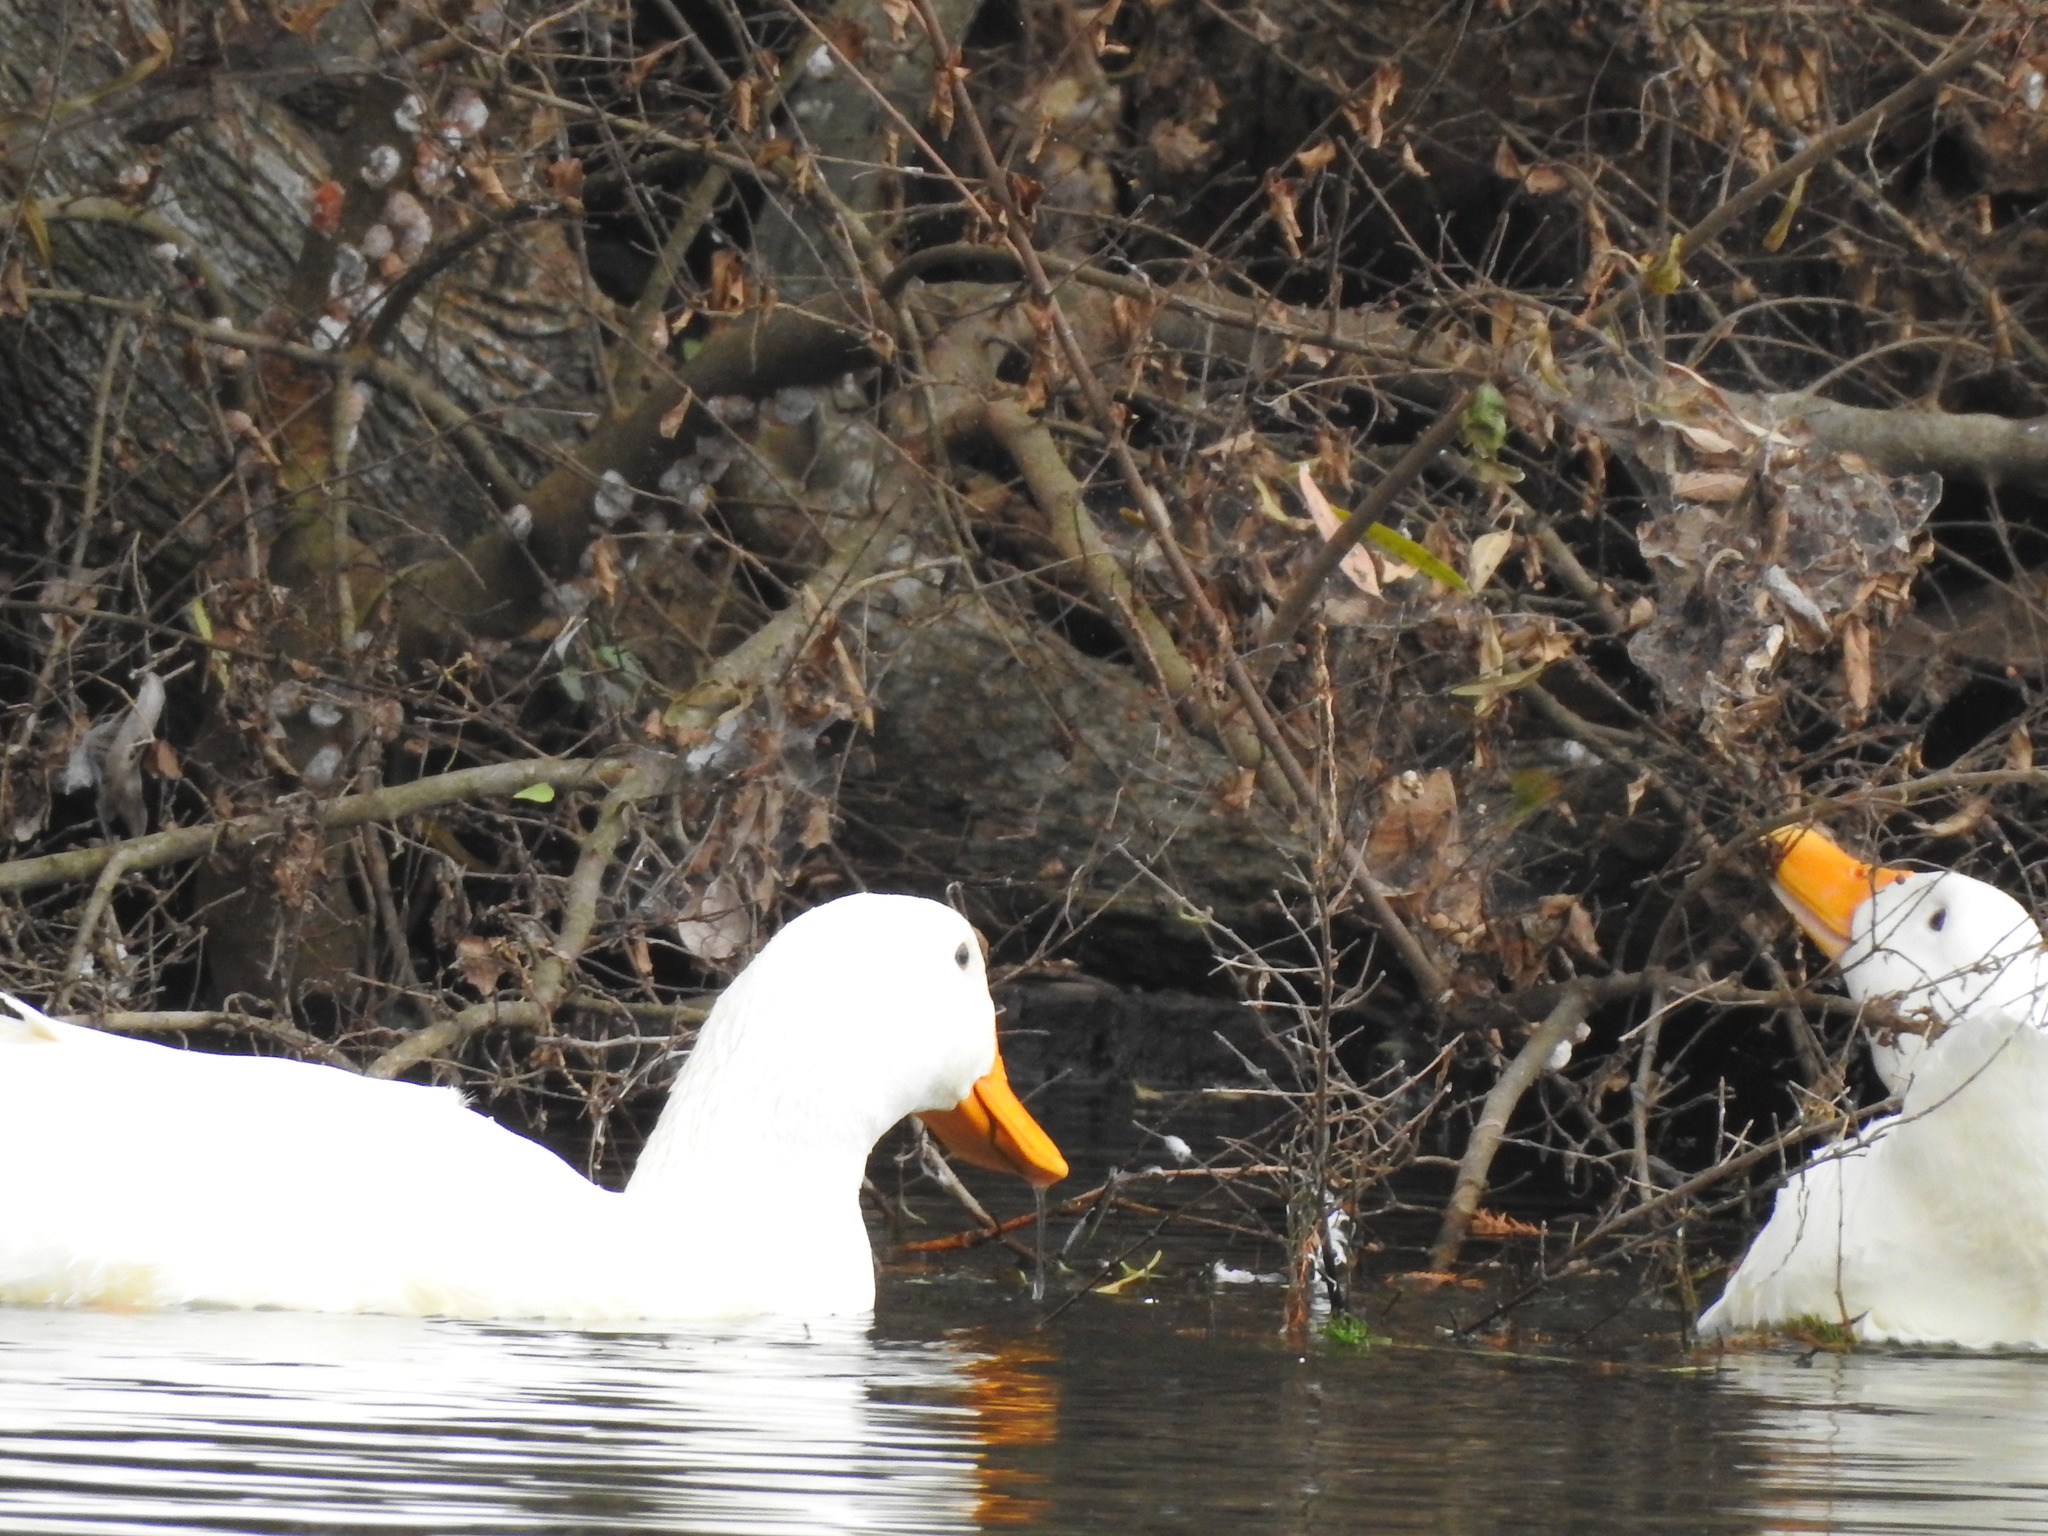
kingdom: Animalia
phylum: Chordata
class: Aves
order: Anseriformes
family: Anatidae
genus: Anas
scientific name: Anas platyrhynchos
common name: Mallard
